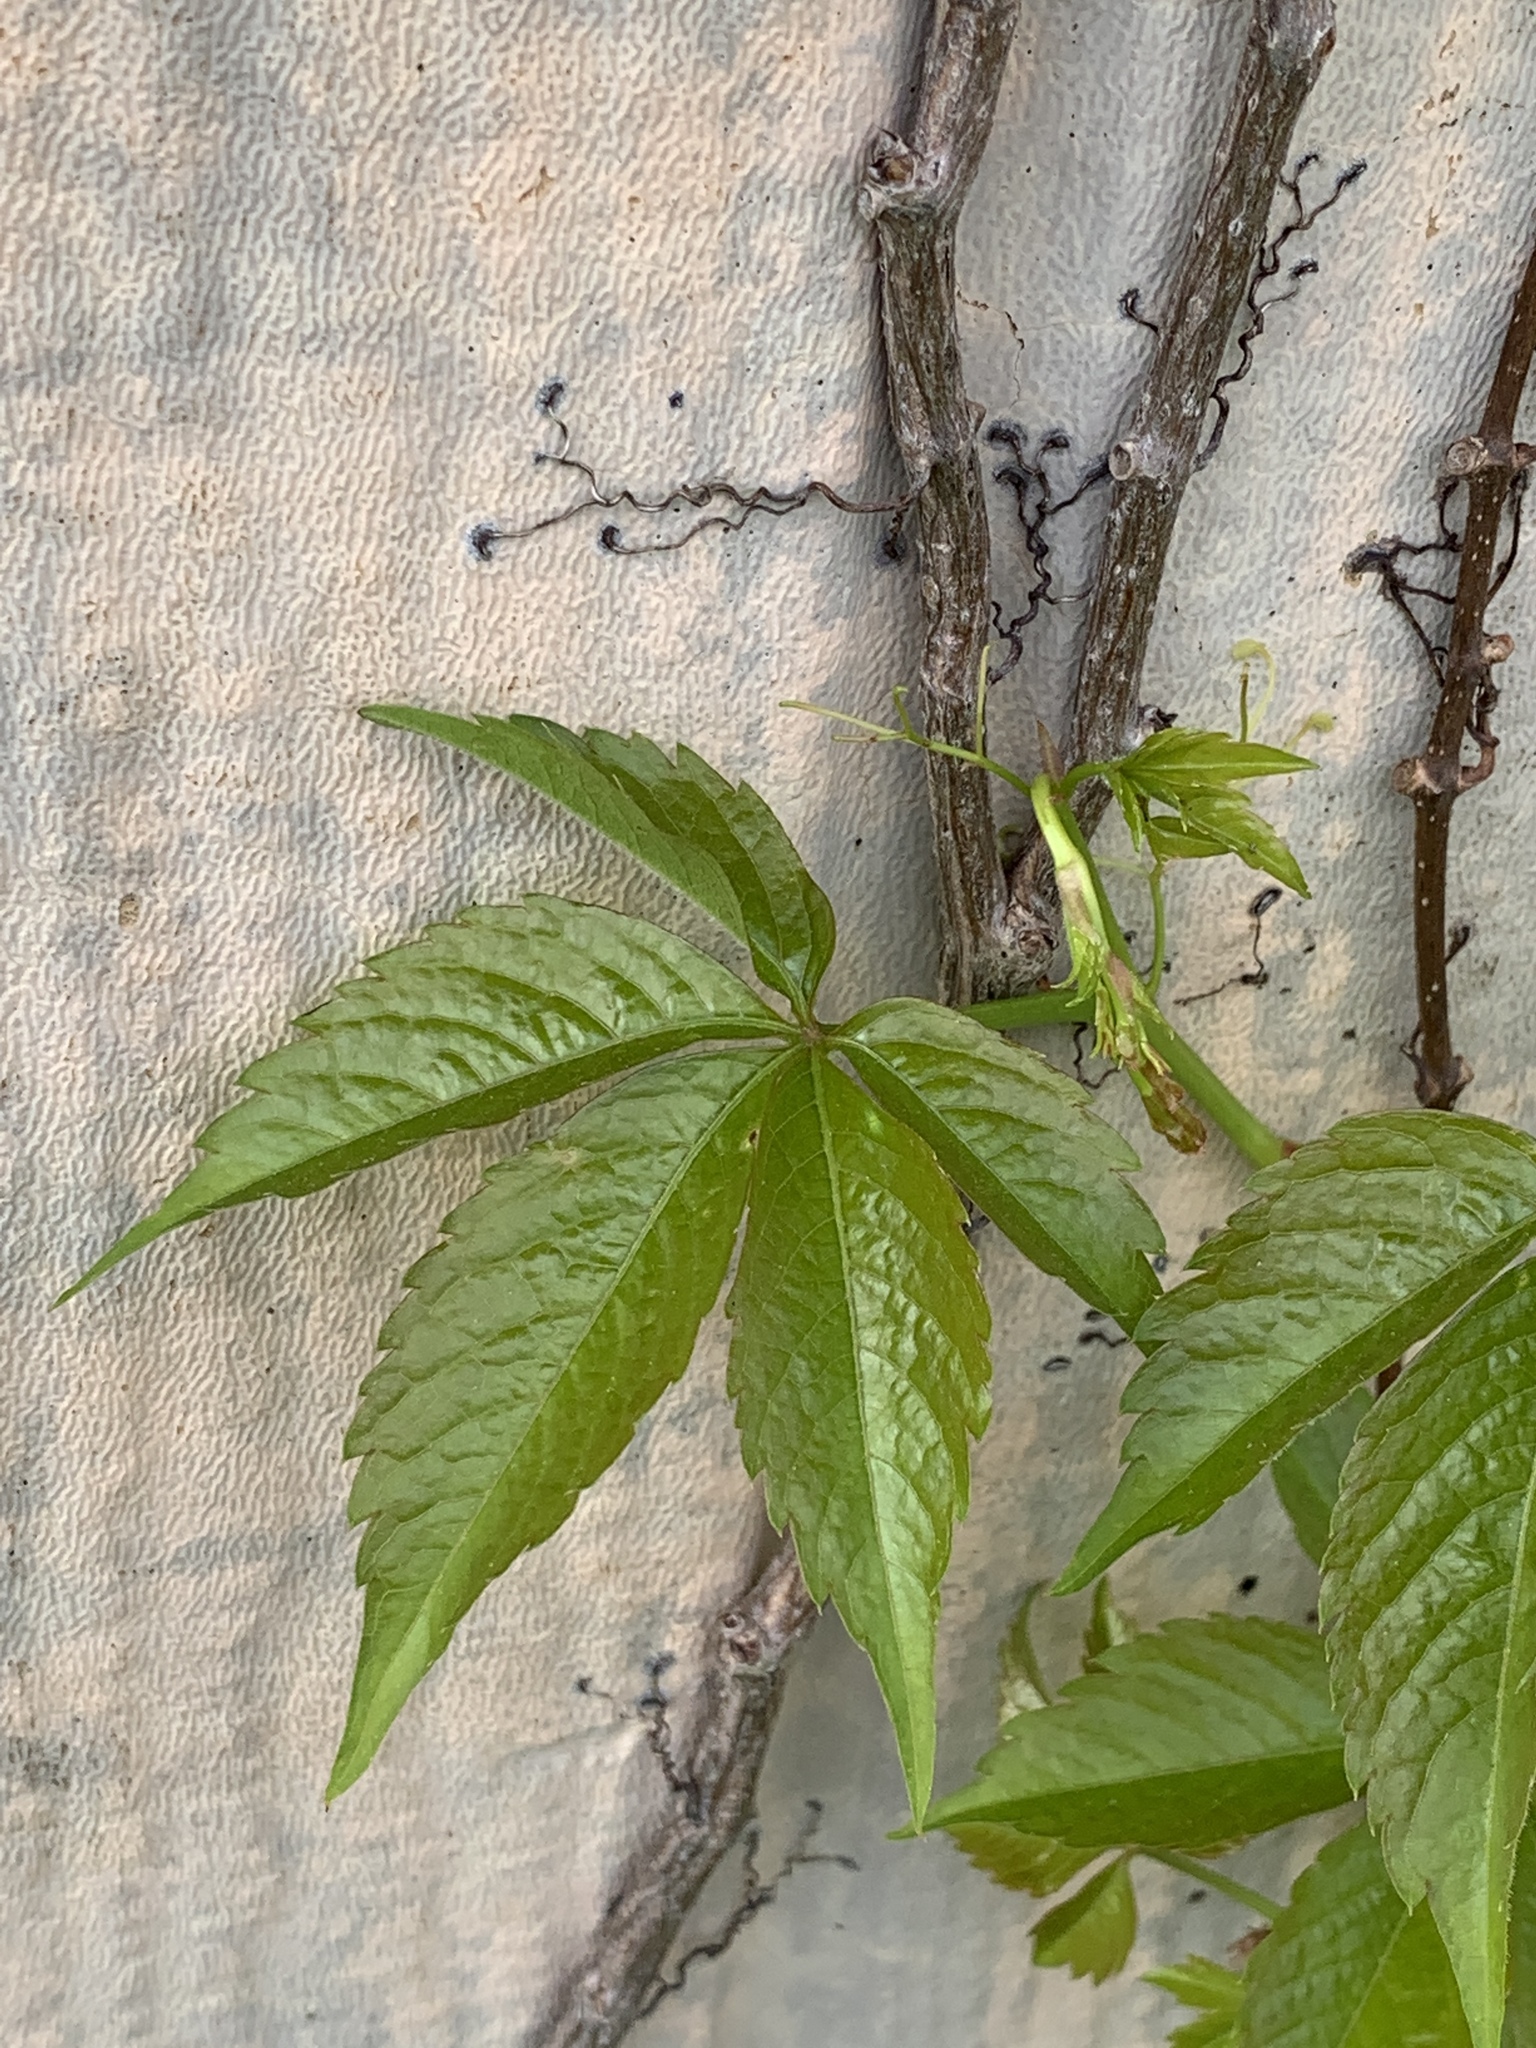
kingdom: Plantae
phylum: Tracheophyta
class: Magnoliopsida
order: Vitales
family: Vitaceae
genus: Parthenocissus
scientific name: Parthenocissus quinquefolia
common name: Virginia-creeper
